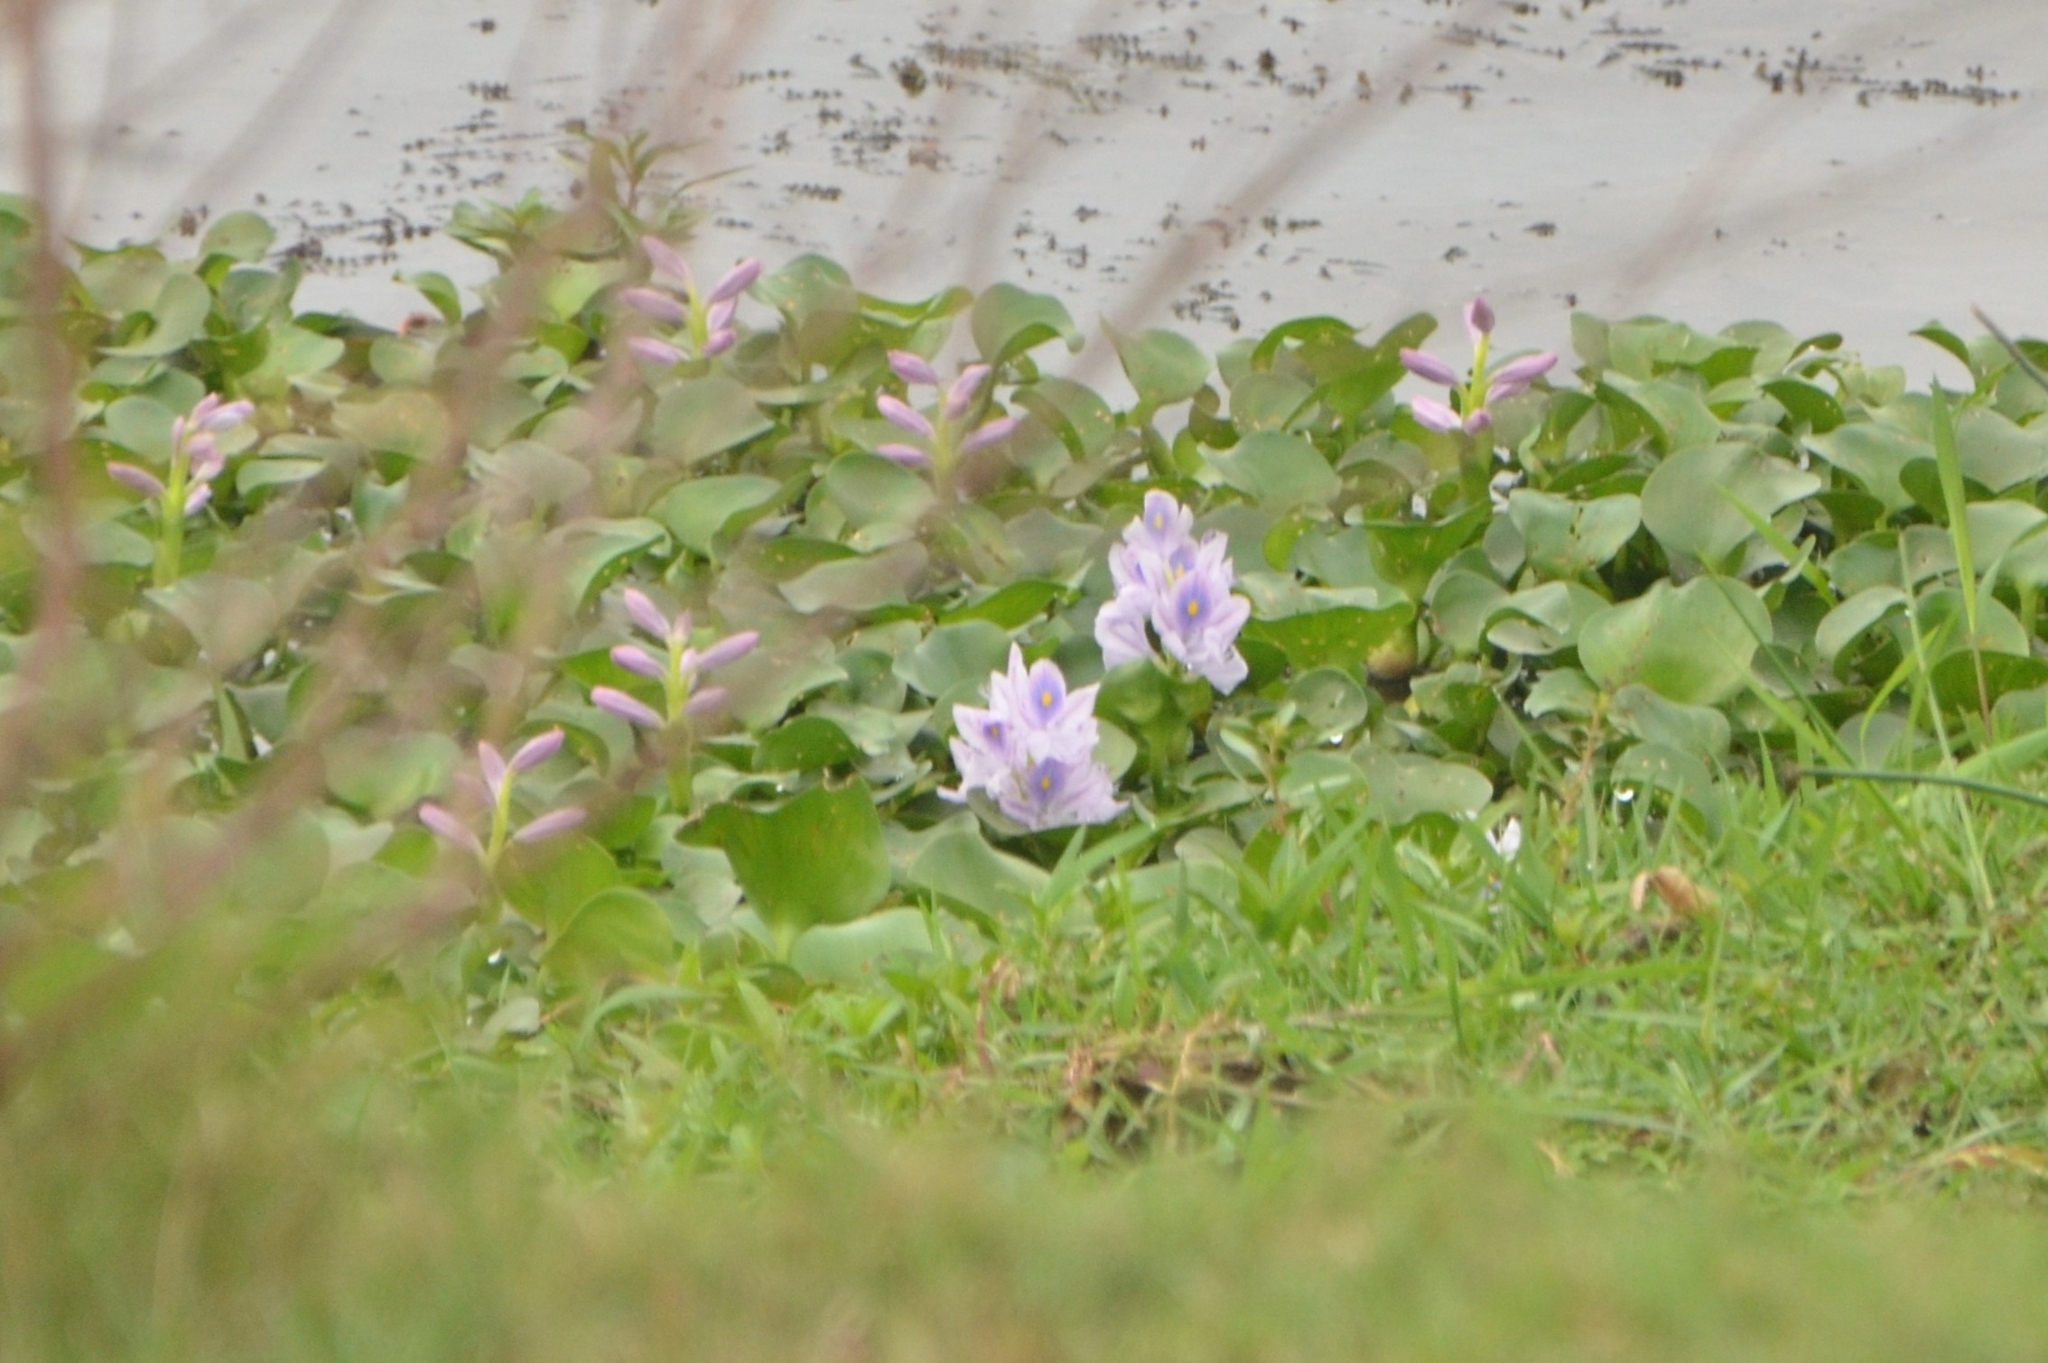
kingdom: Plantae
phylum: Tracheophyta
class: Liliopsida
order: Commelinales
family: Pontederiaceae
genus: Pontederia
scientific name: Pontederia crassipes
